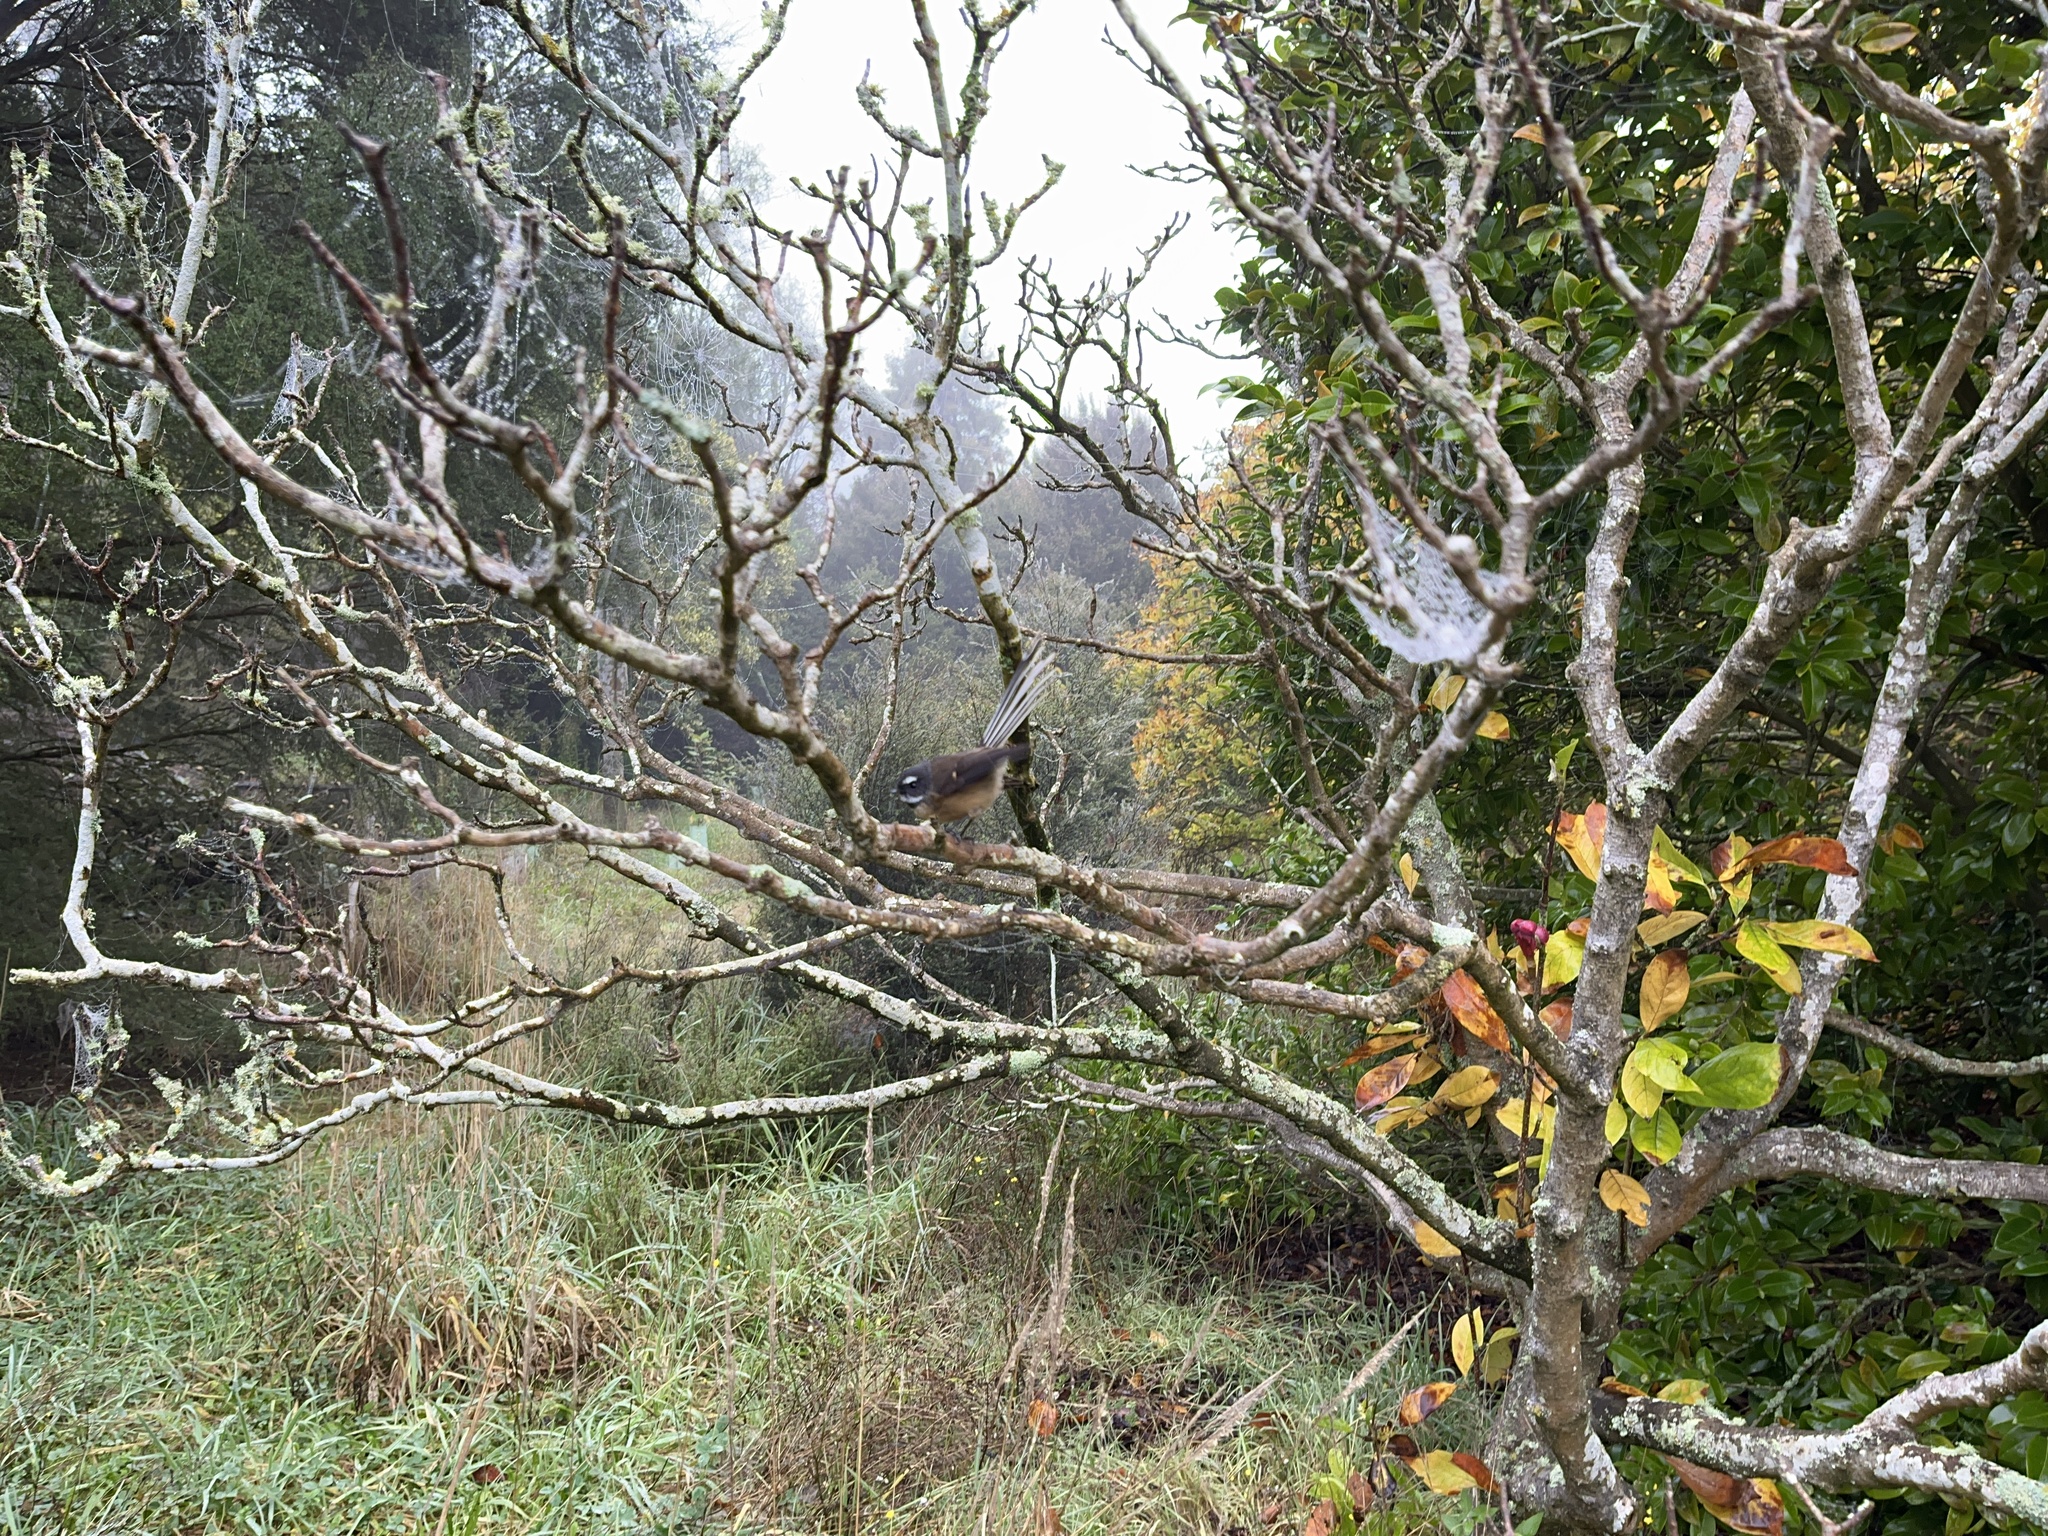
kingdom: Animalia
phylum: Chordata
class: Aves
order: Passeriformes
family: Rhipiduridae
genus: Rhipidura
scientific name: Rhipidura fuliginosa
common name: New zealand fantail
